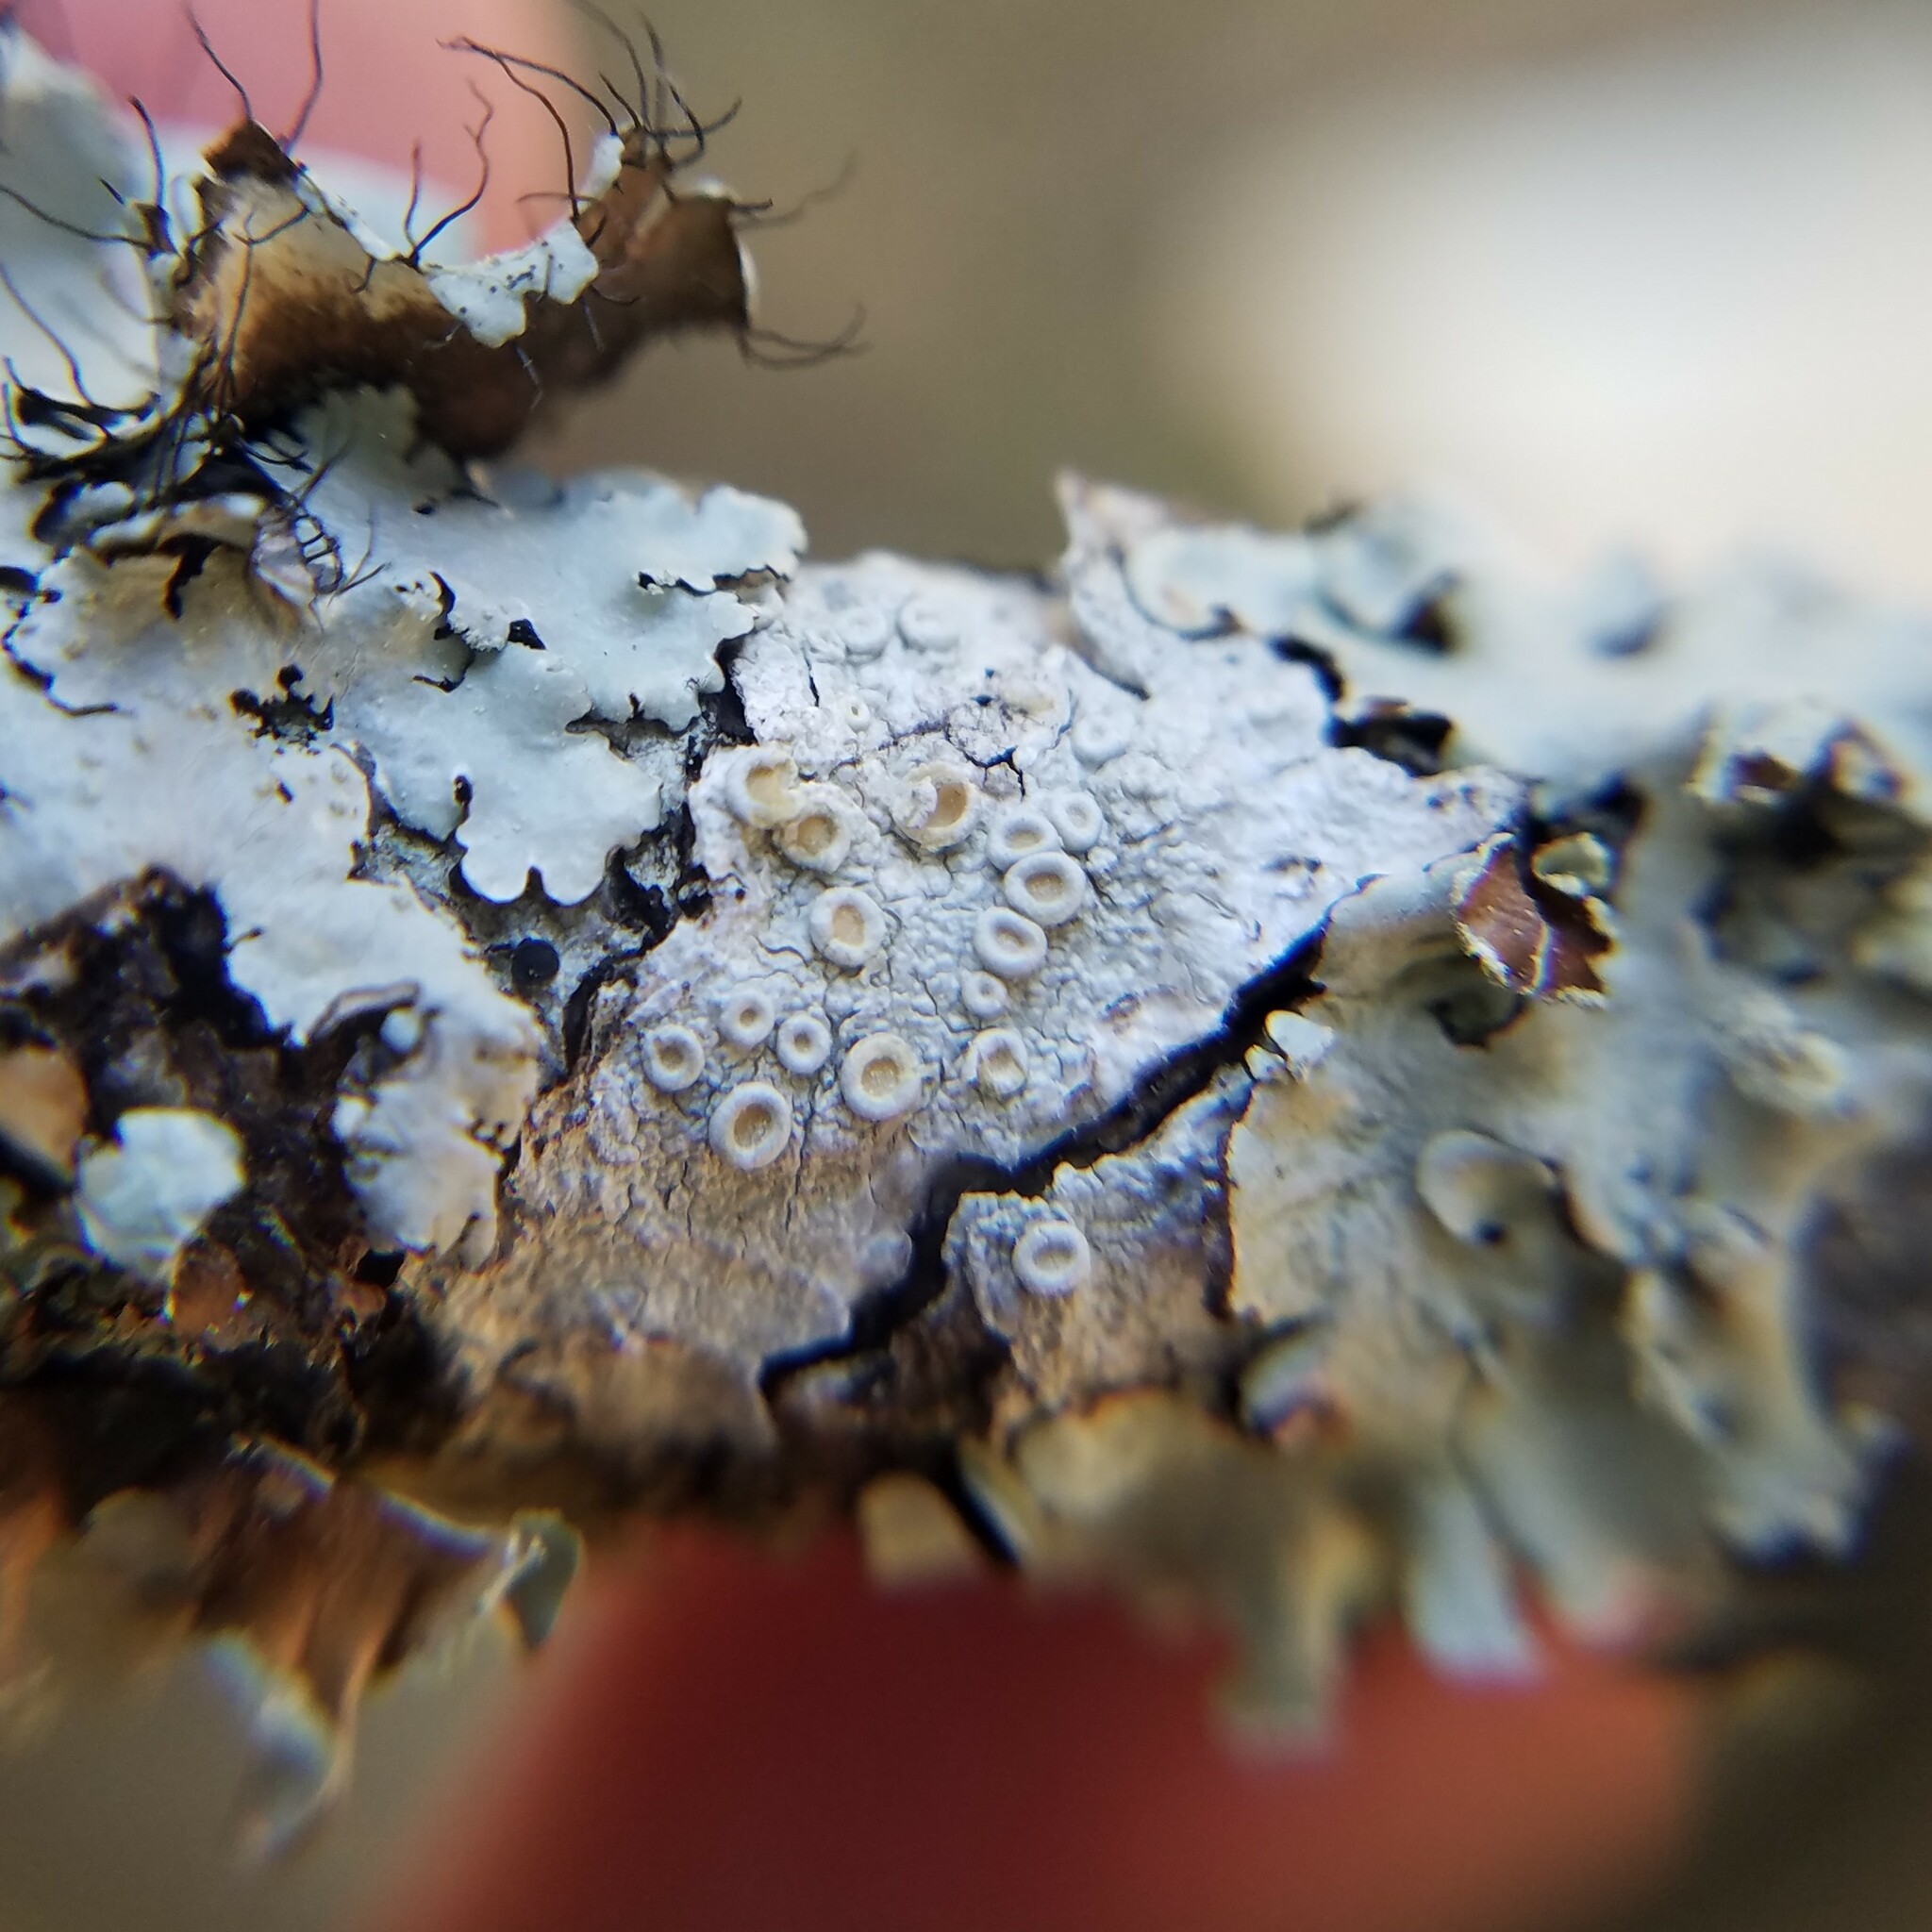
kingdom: Fungi
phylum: Ascomycota
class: Lecanoromycetes
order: Pertusariales
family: Ochrolechiaceae
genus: Ochrolechia
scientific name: Ochrolechia africana
